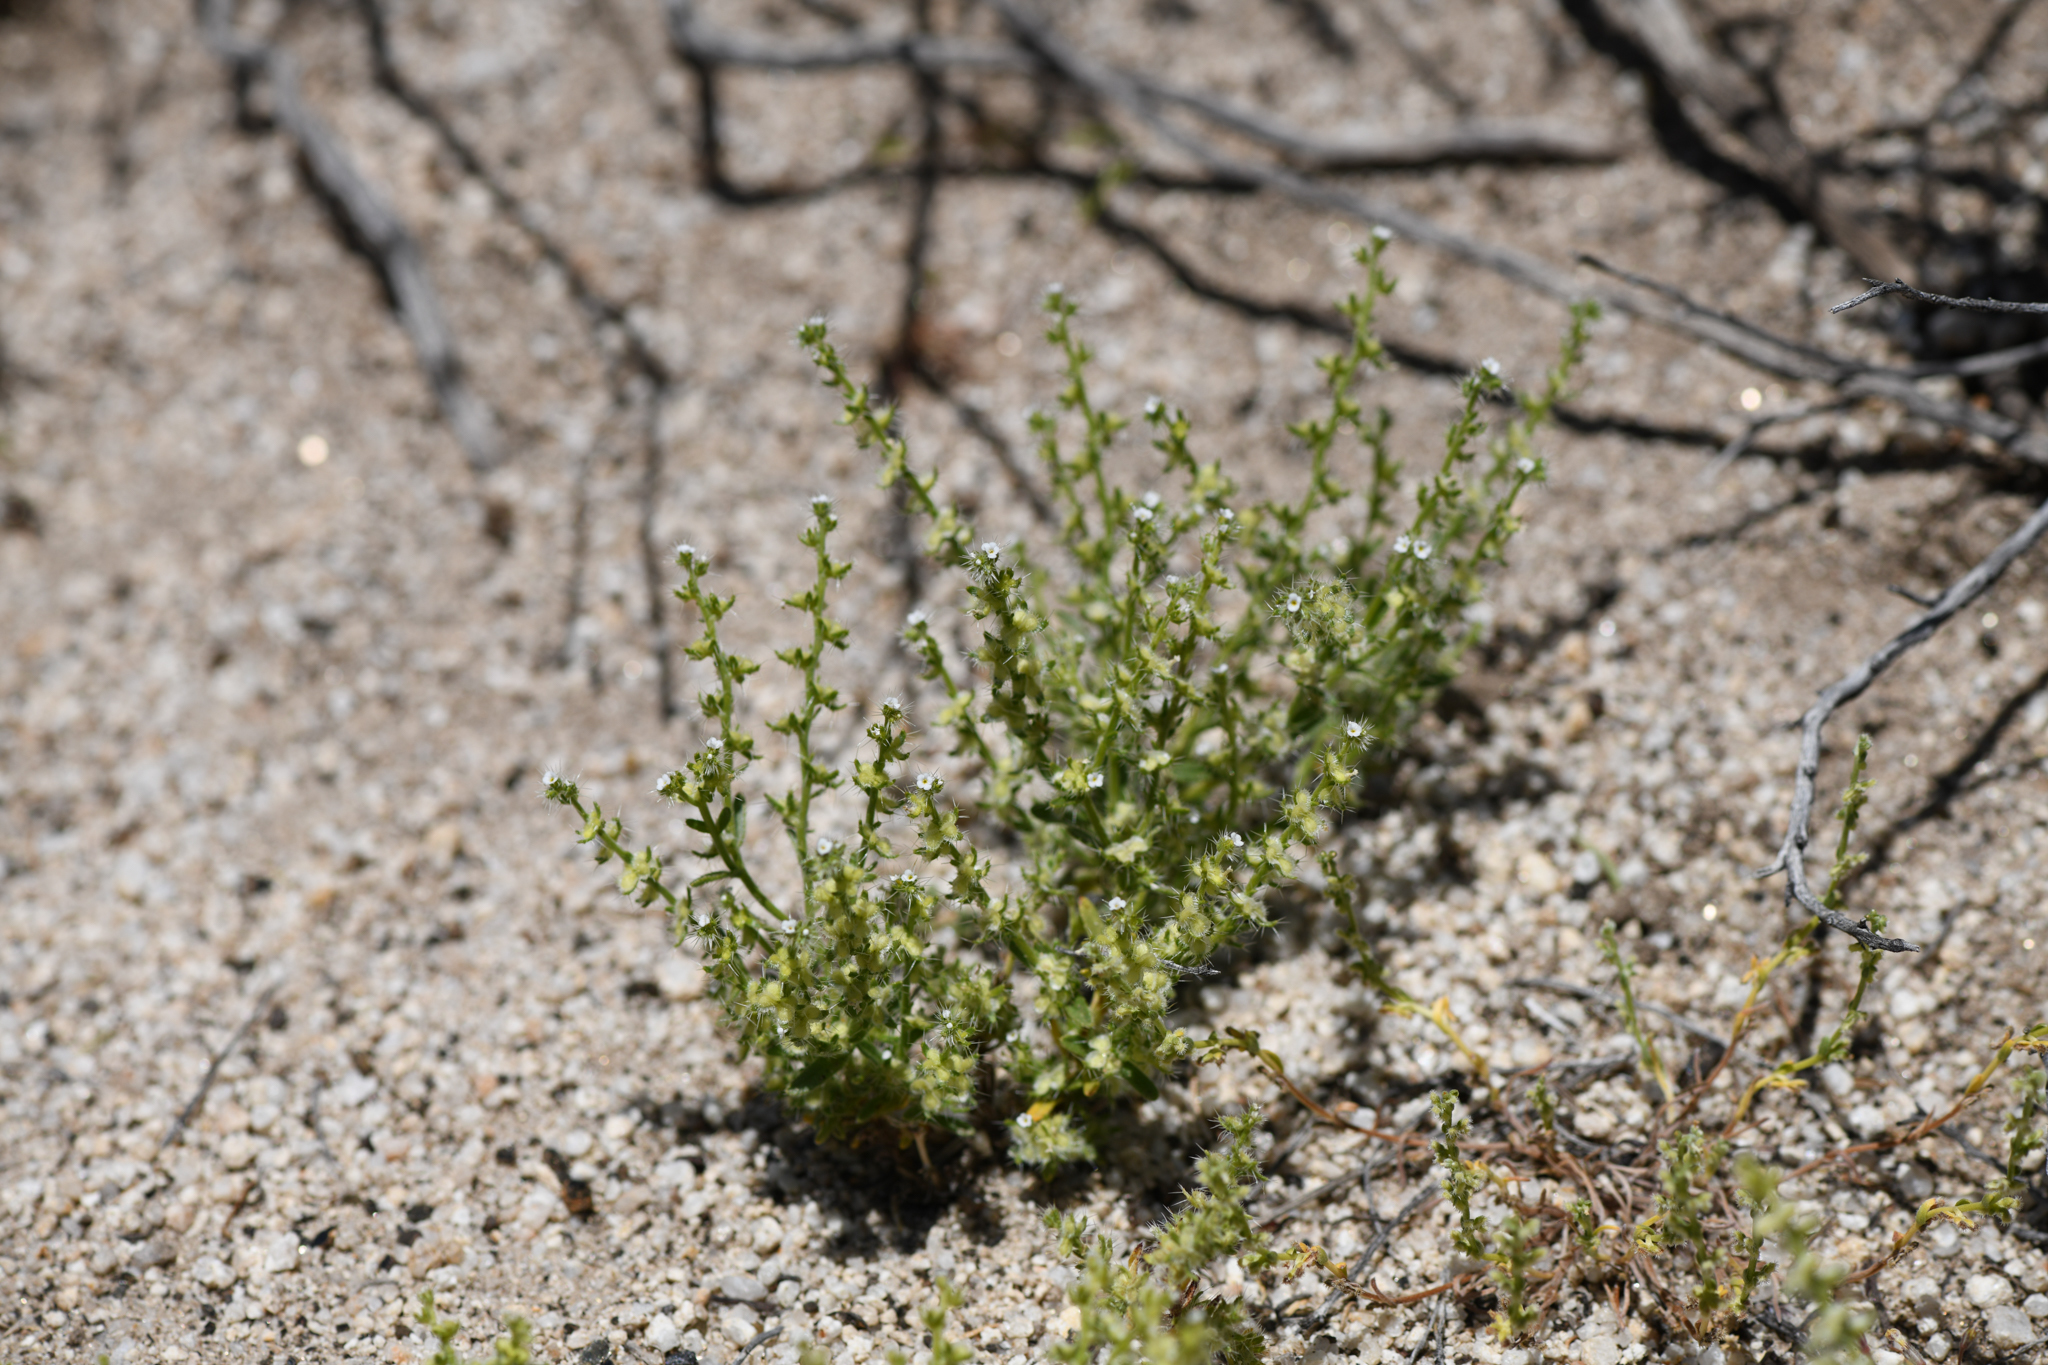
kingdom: Plantae
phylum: Tracheophyta
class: Magnoliopsida
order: Boraginales
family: Boraginaceae
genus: Pectocarya
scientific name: Pectocarya setosa
